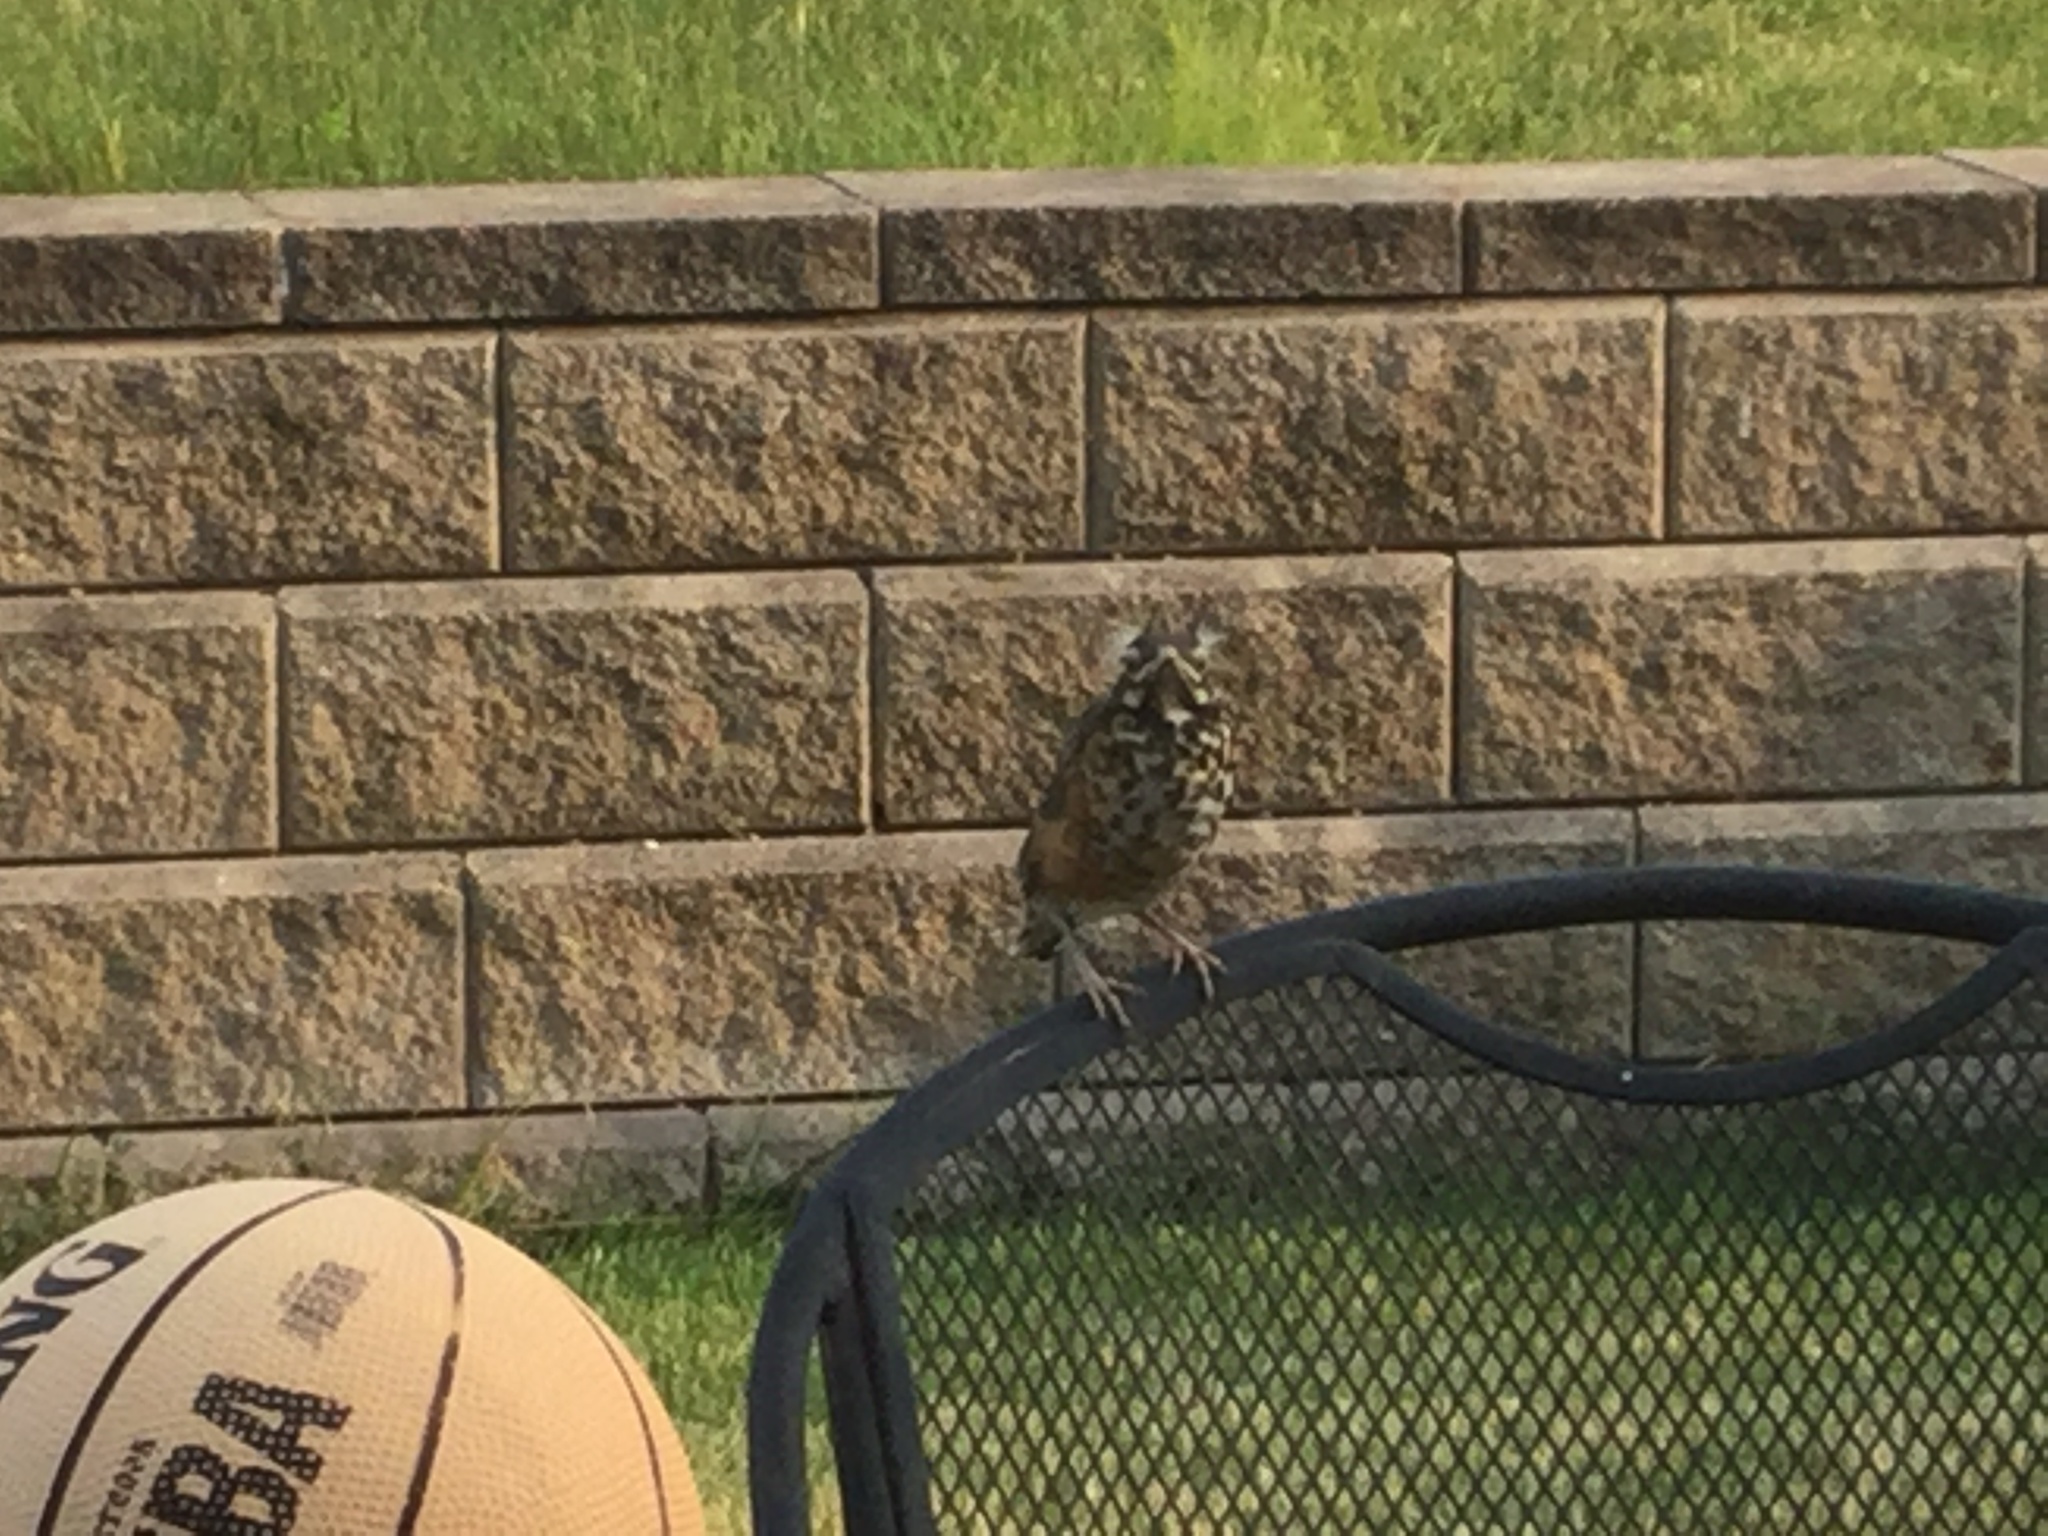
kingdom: Animalia
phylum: Chordata
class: Aves
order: Passeriformes
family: Turdidae
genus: Turdus
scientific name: Turdus migratorius
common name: American robin
